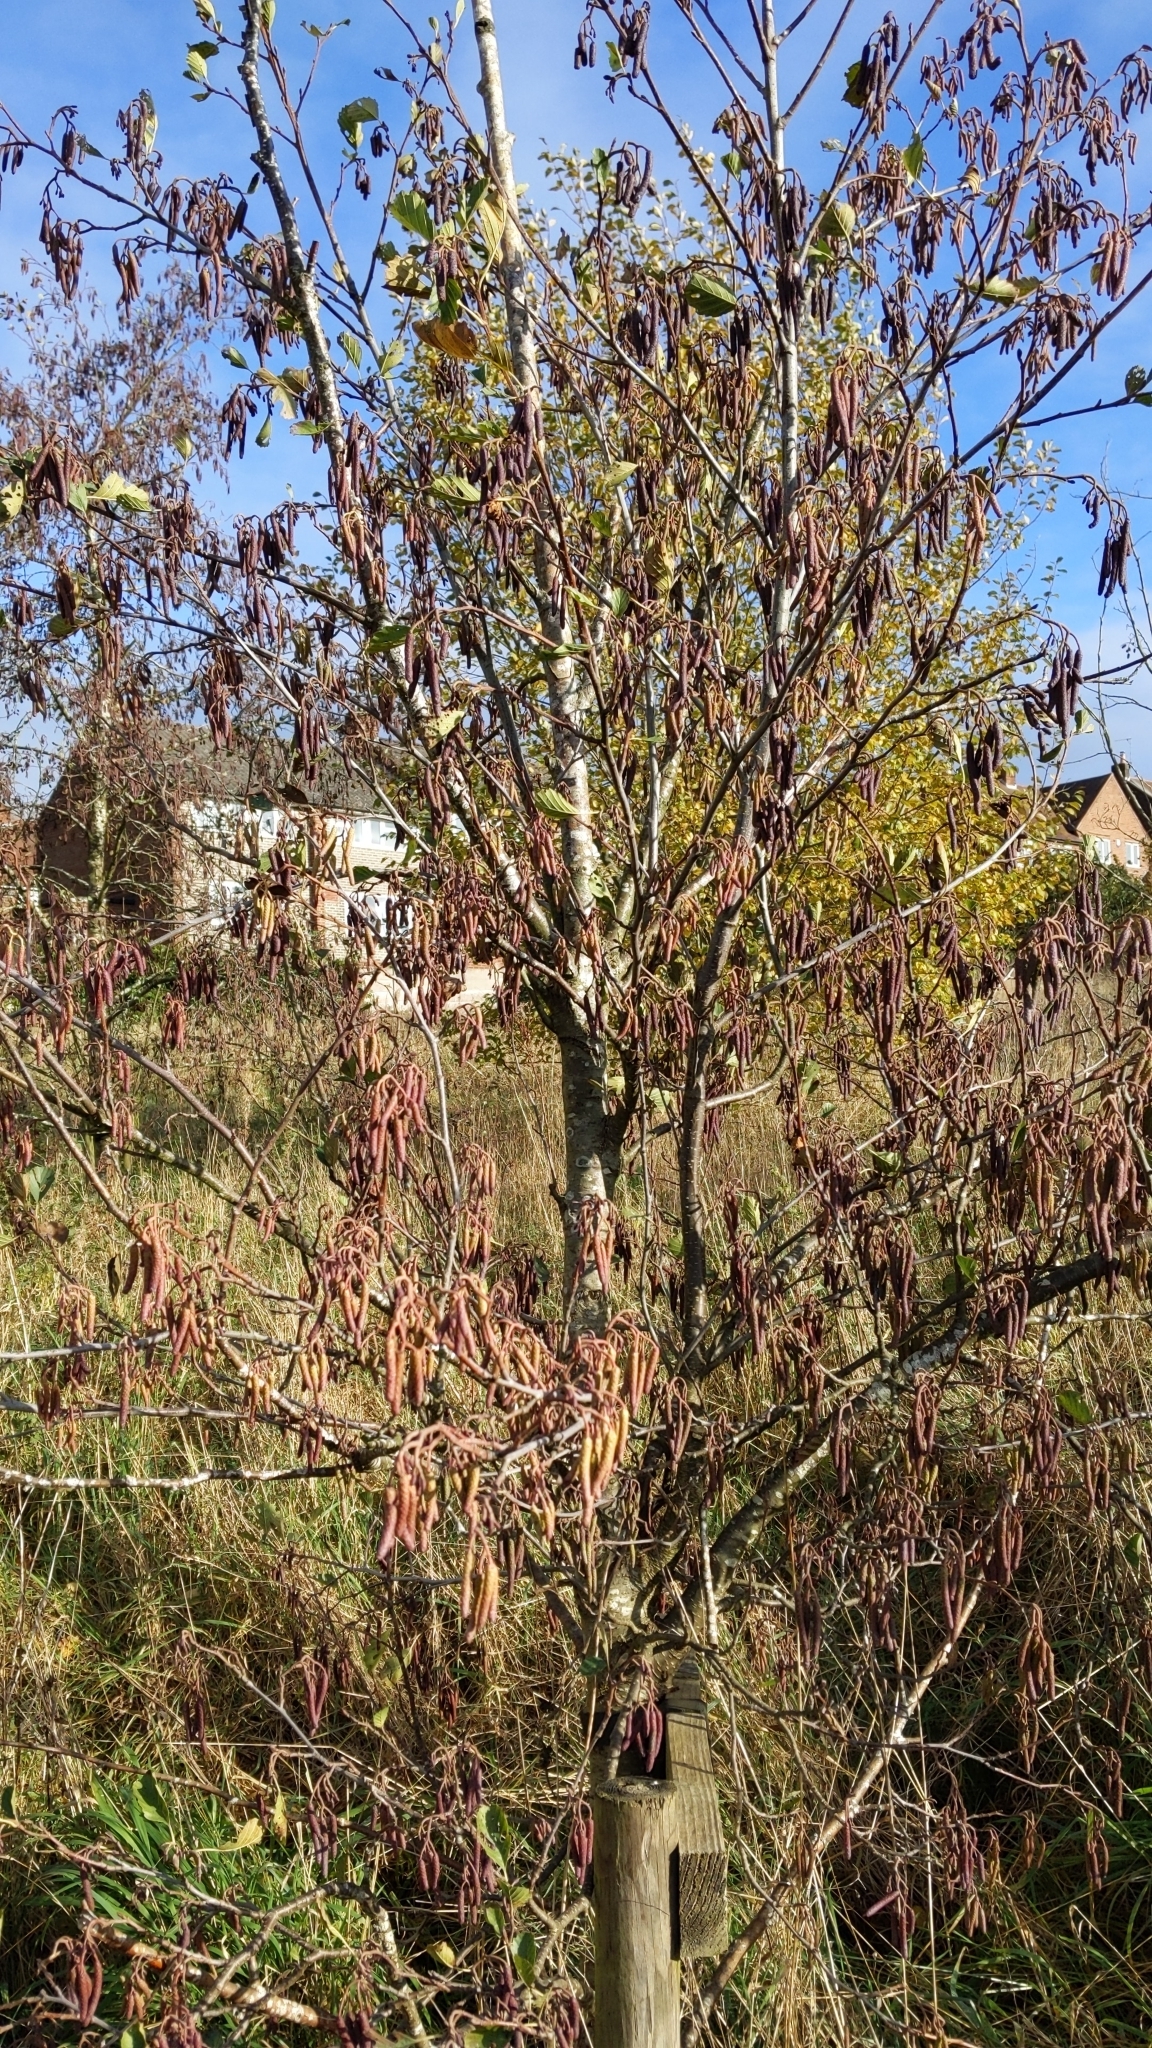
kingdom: Plantae
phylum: Tracheophyta
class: Magnoliopsida
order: Lamiales
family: Oleaceae
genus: Fraxinus
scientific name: Fraxinus excelsior
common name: European ash
